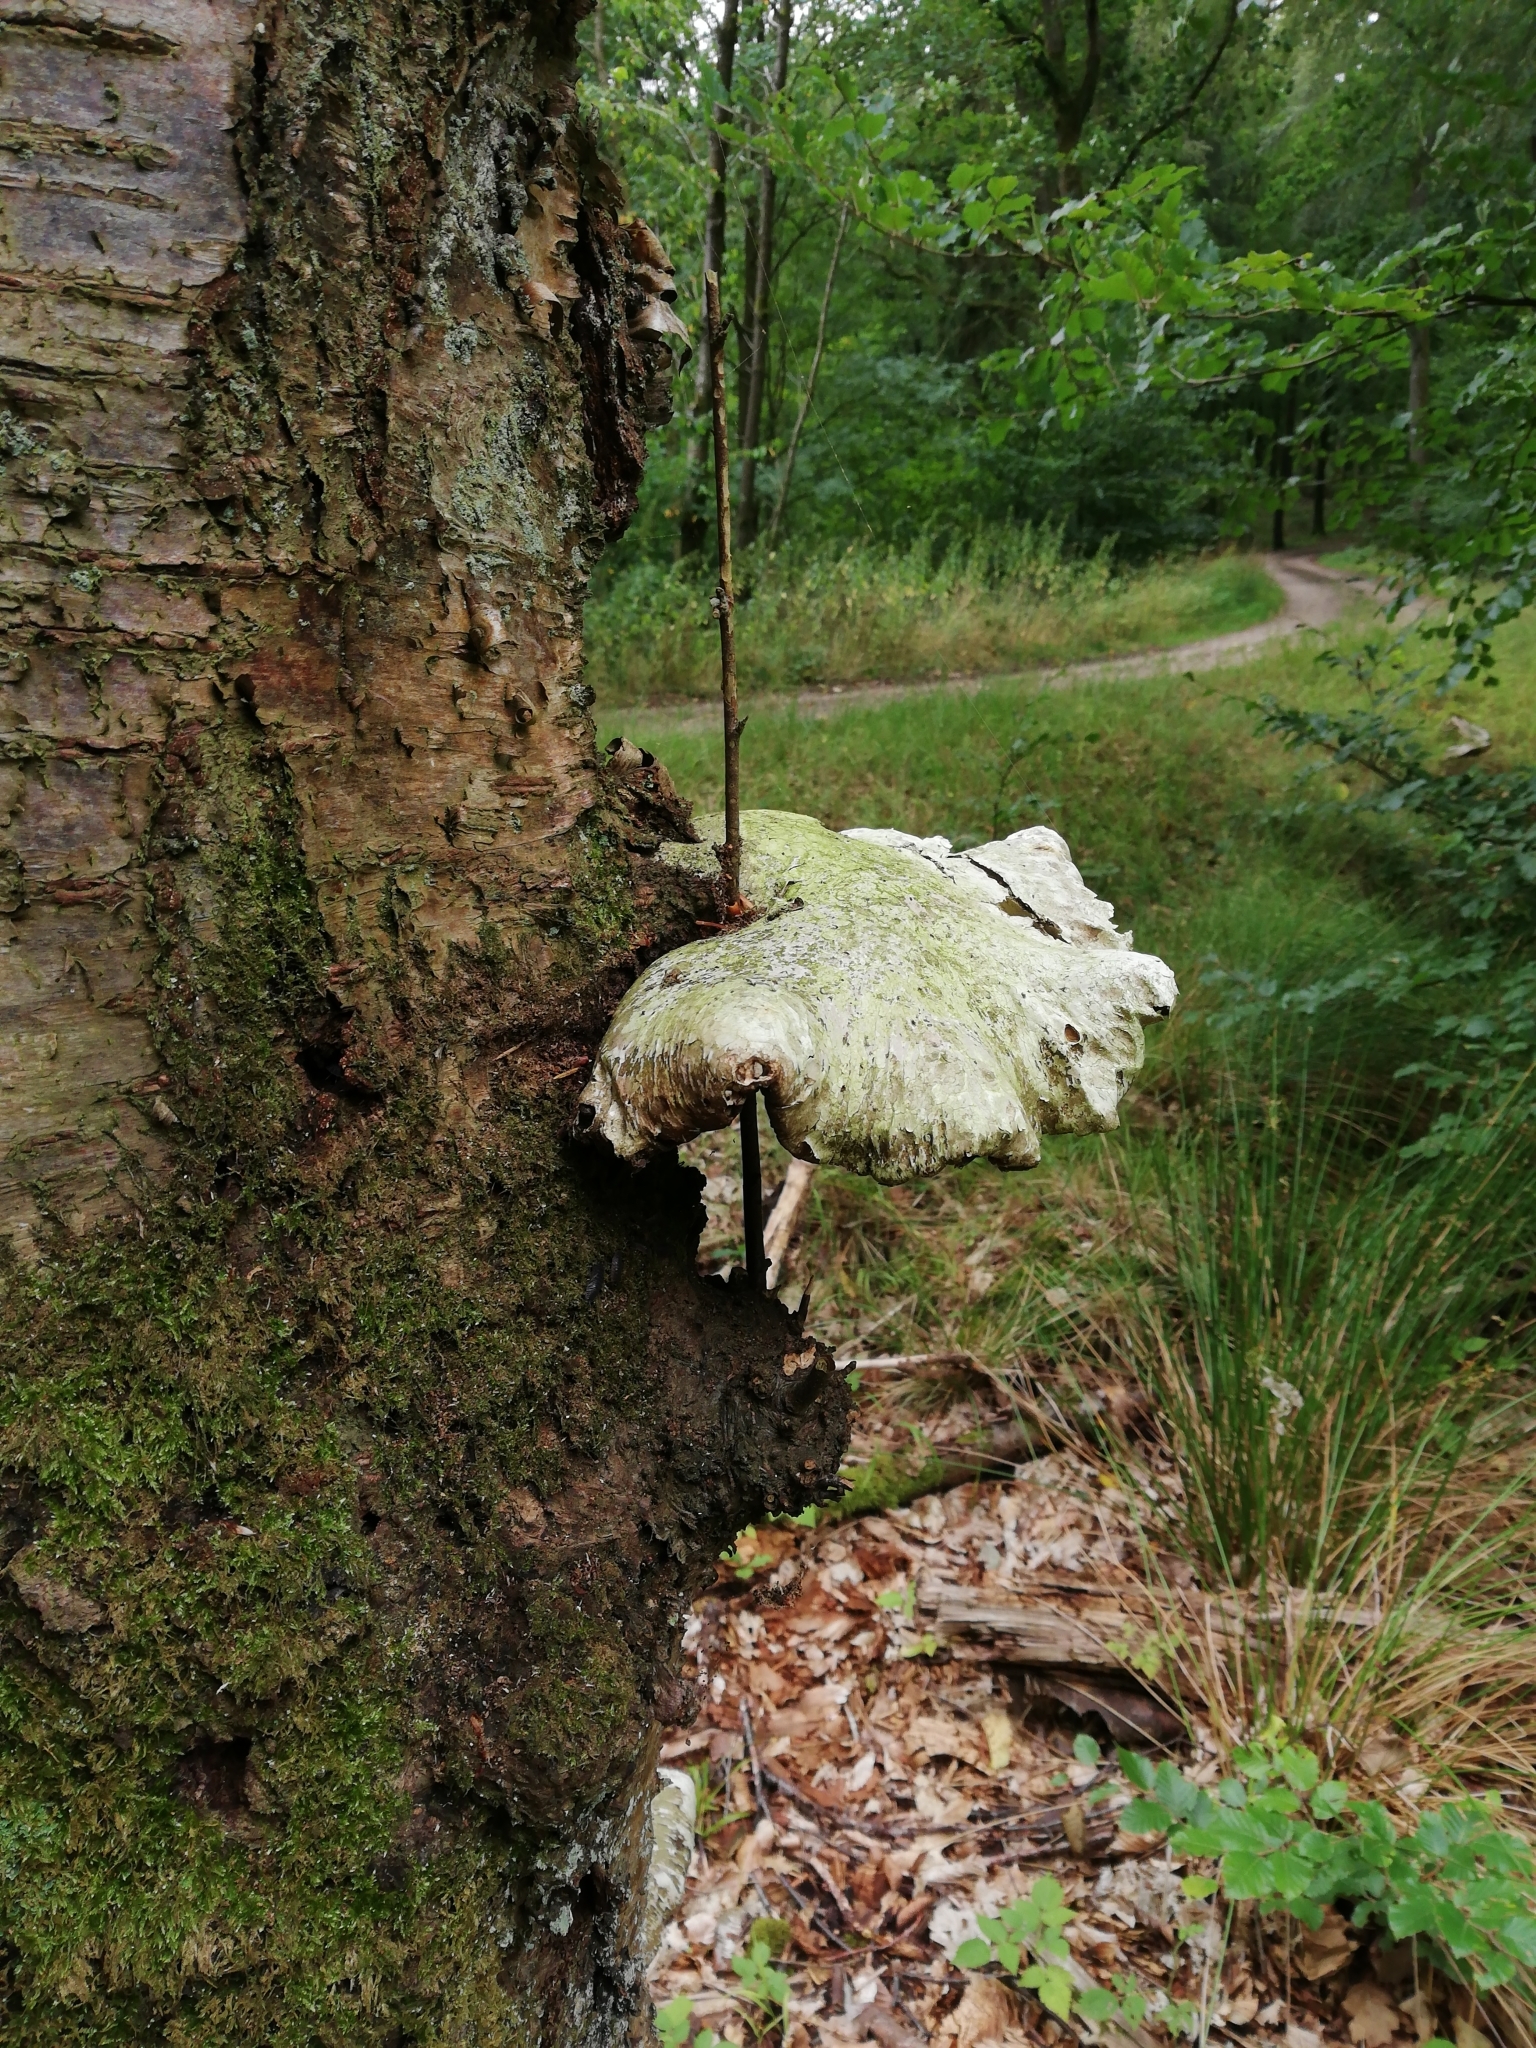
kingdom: Fungi
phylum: Basidiomycota
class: Agaricomycetes
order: Polyporales
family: Fomitopsidaceae
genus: Fomitopsis
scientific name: Fomitopsis betulina
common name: Birch polypore
